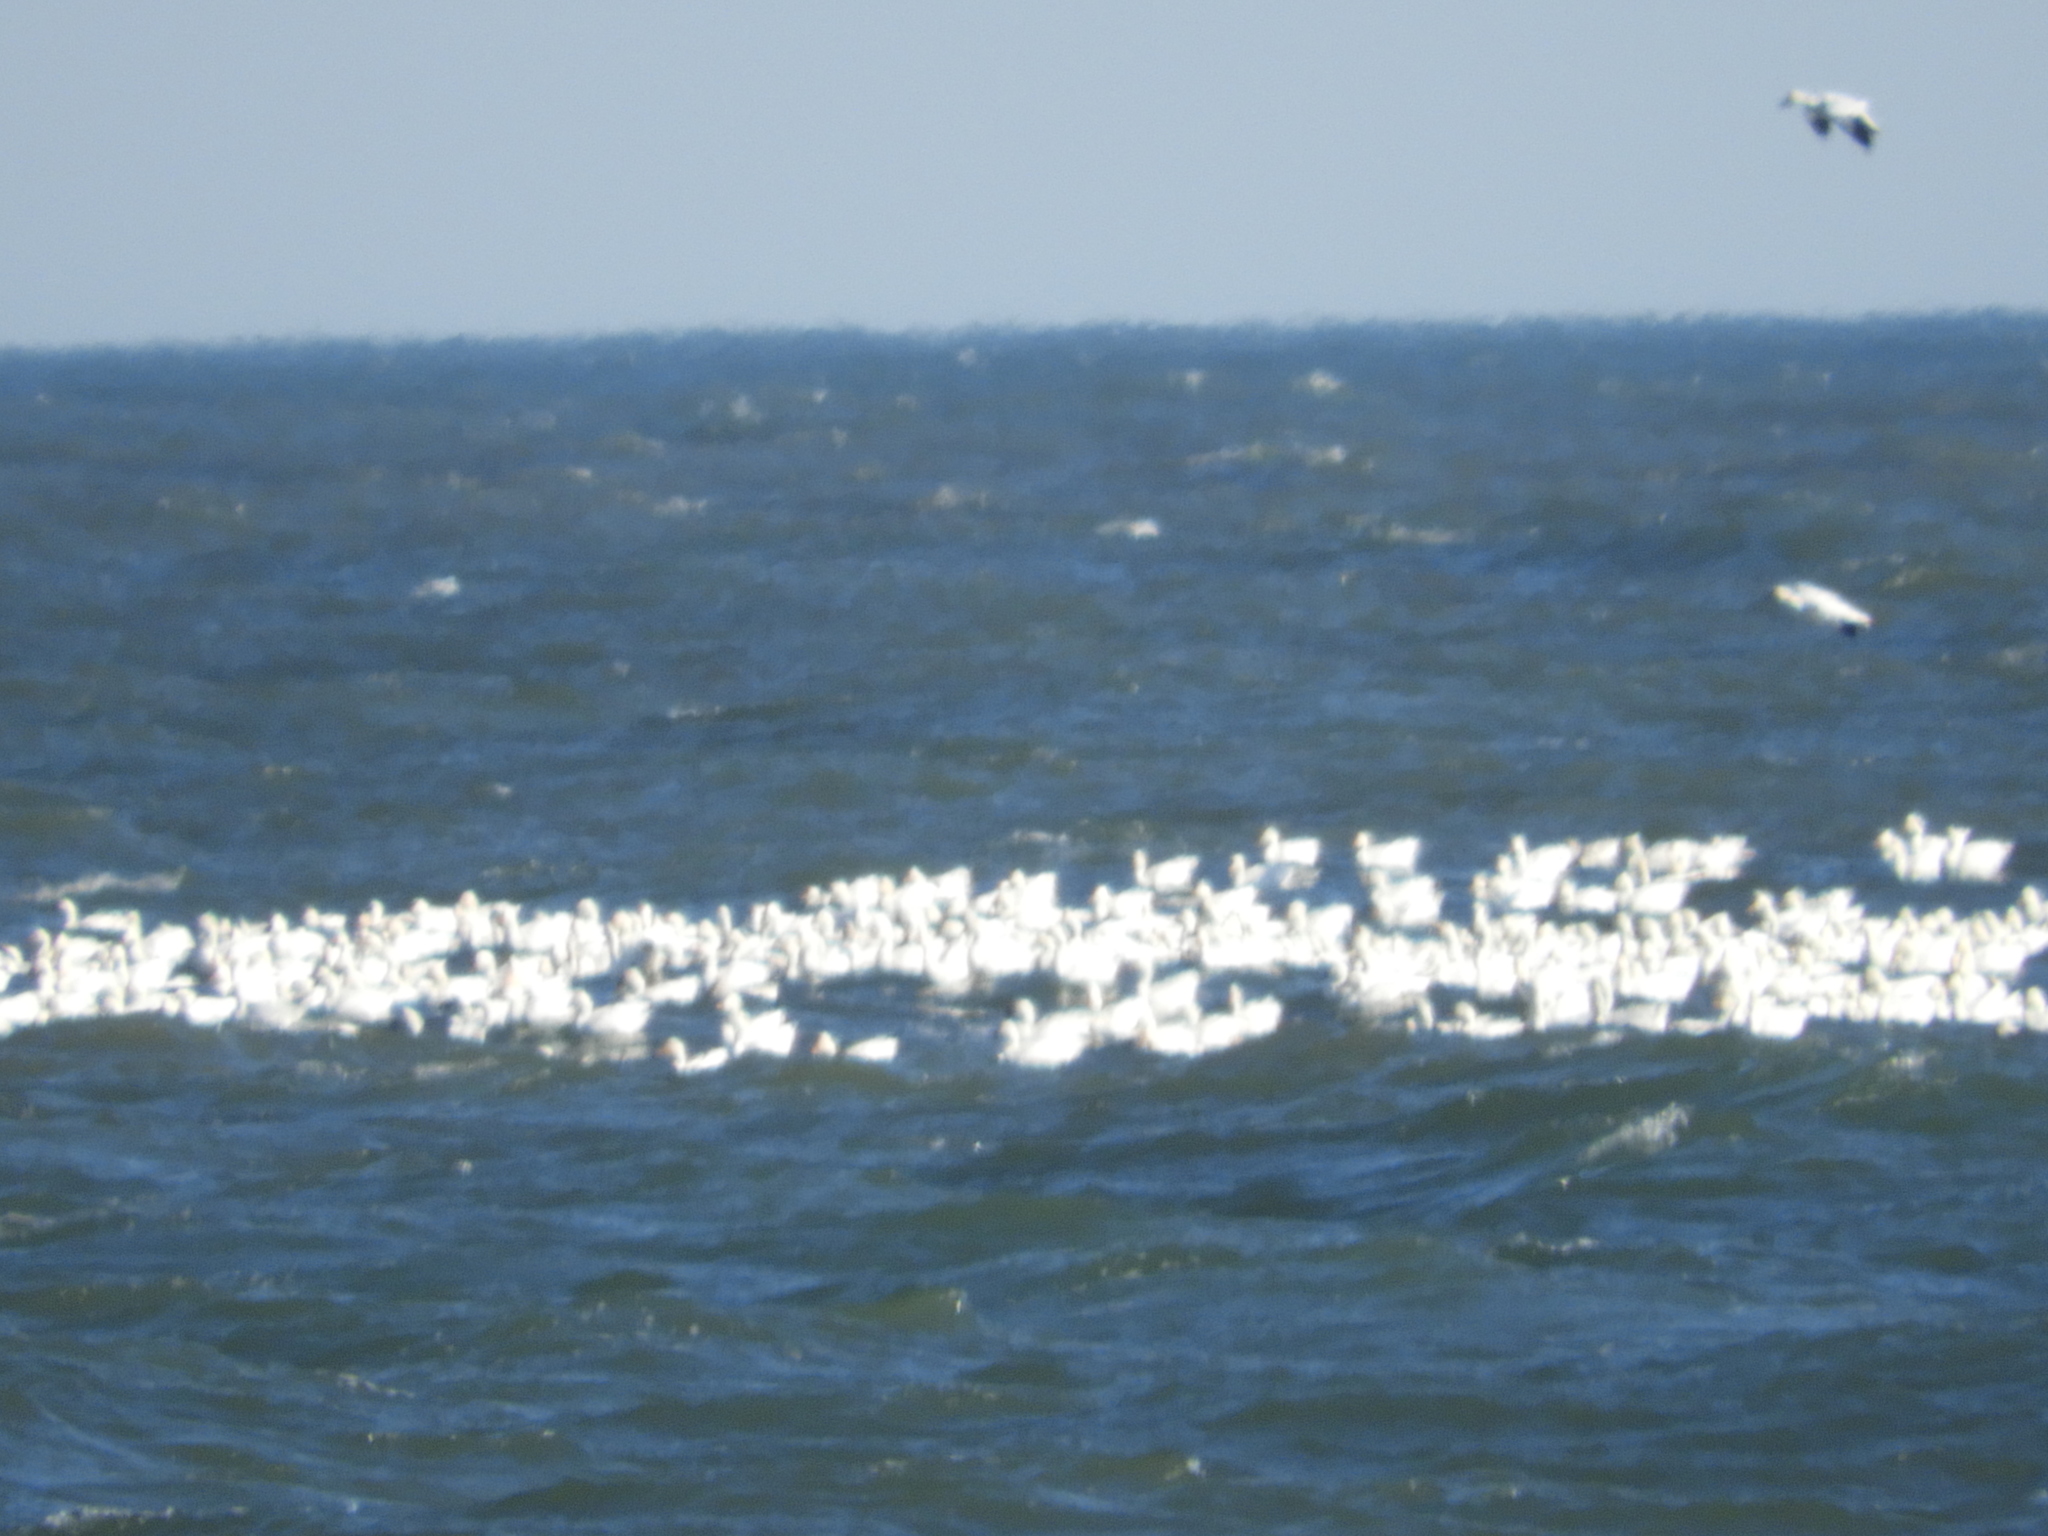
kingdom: Animalia
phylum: Chordata
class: Aves
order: Anseriformes
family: Anatidae
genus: Anser
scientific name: Anser caerulescens
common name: Snow goose
